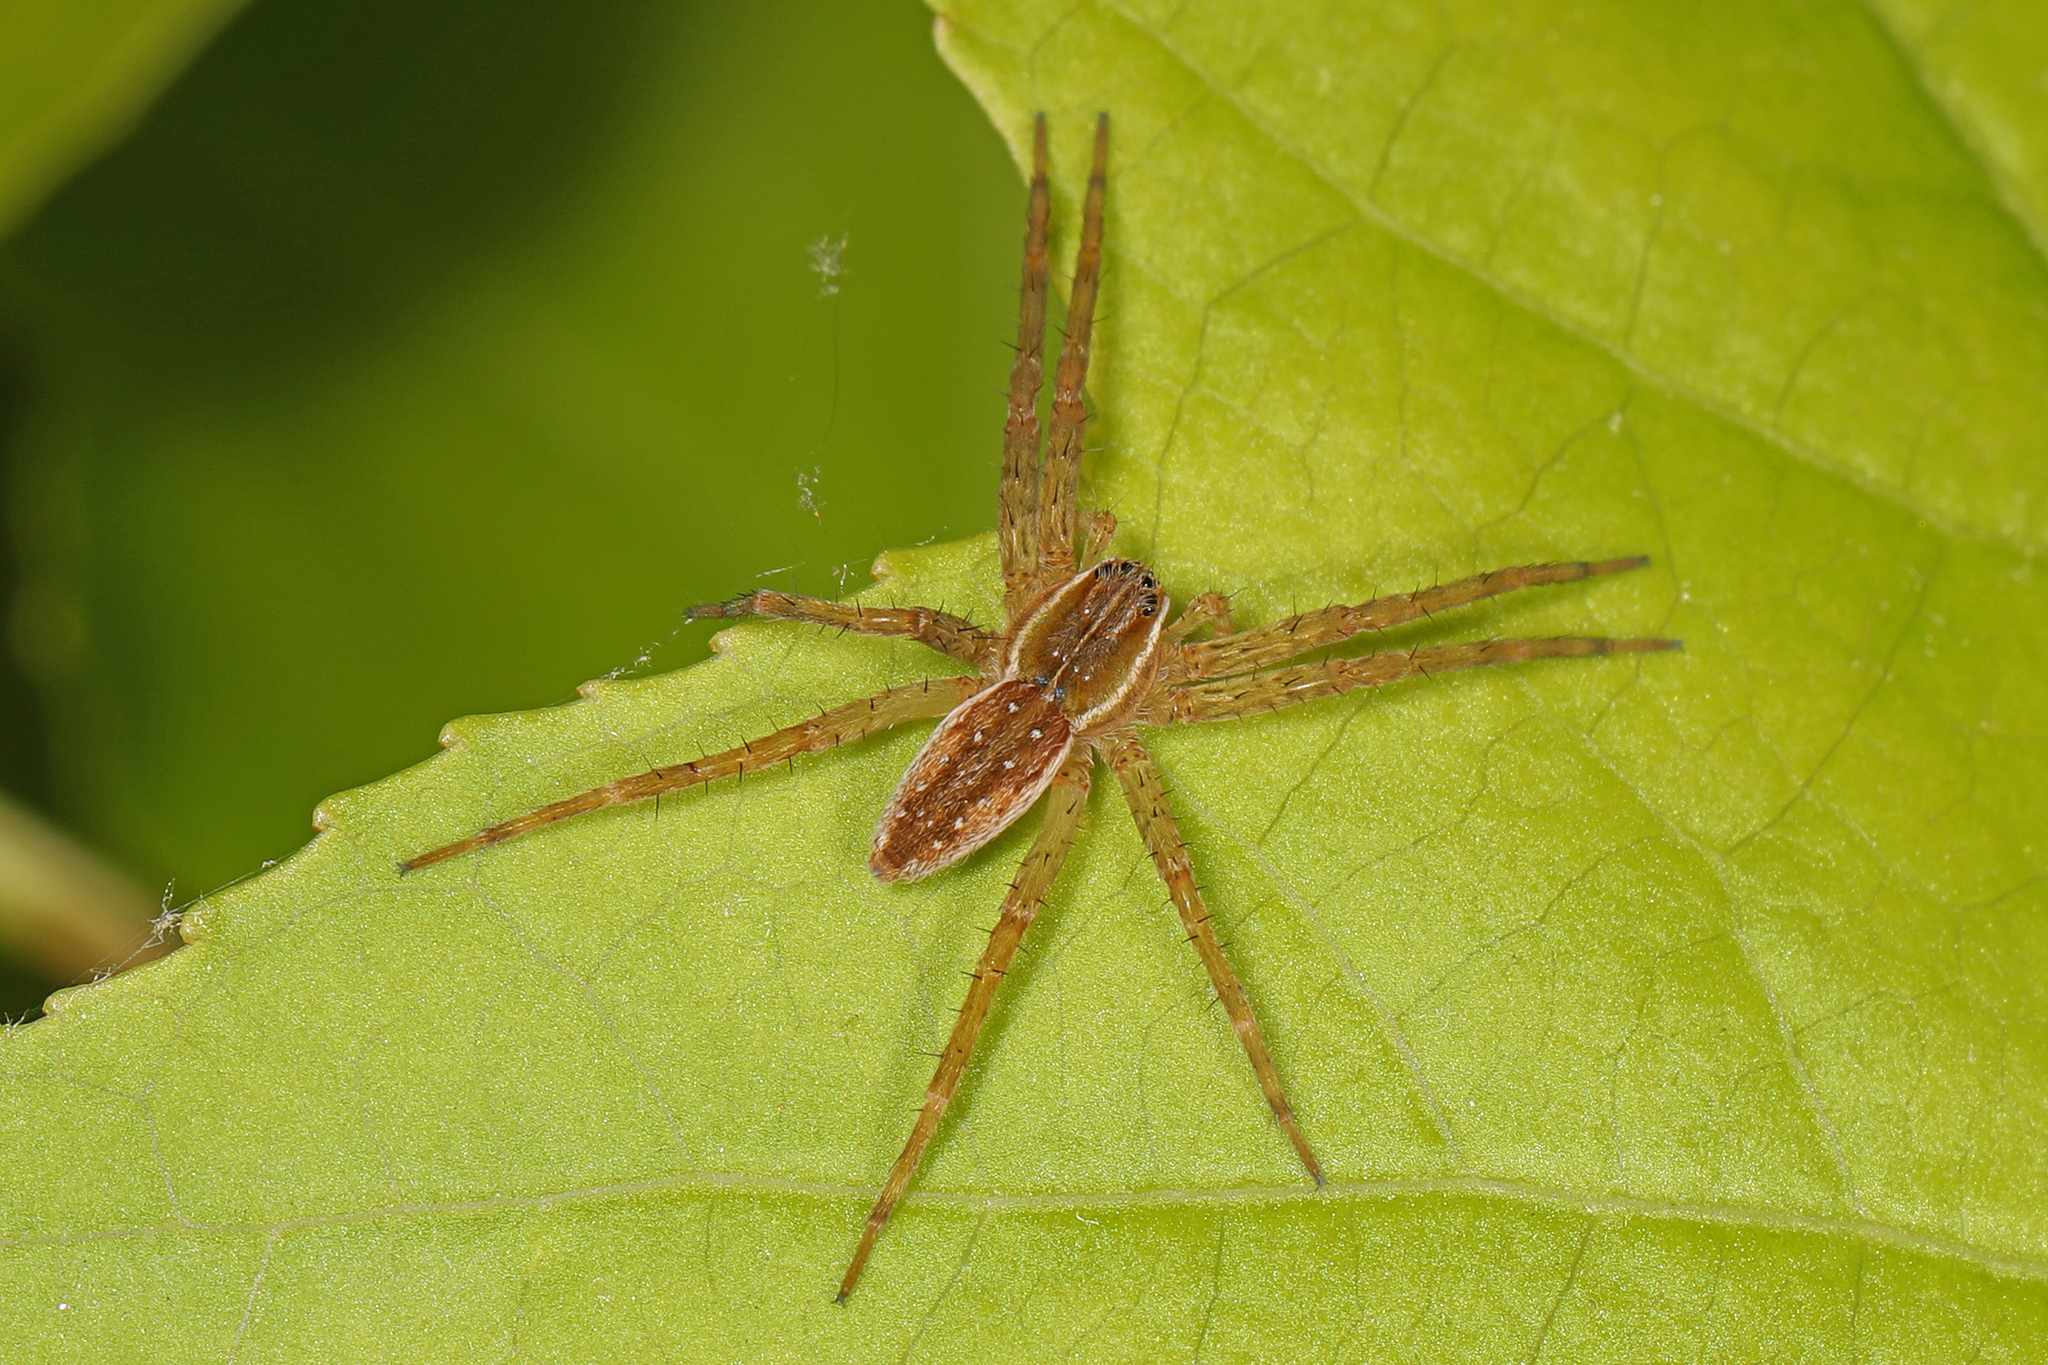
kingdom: Animalia
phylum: Arthropoda
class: Arachnida
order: Araneae
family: Pisauridae
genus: Dolomedes
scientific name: Dolomedes triton
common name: Six-spotted fishing spider
